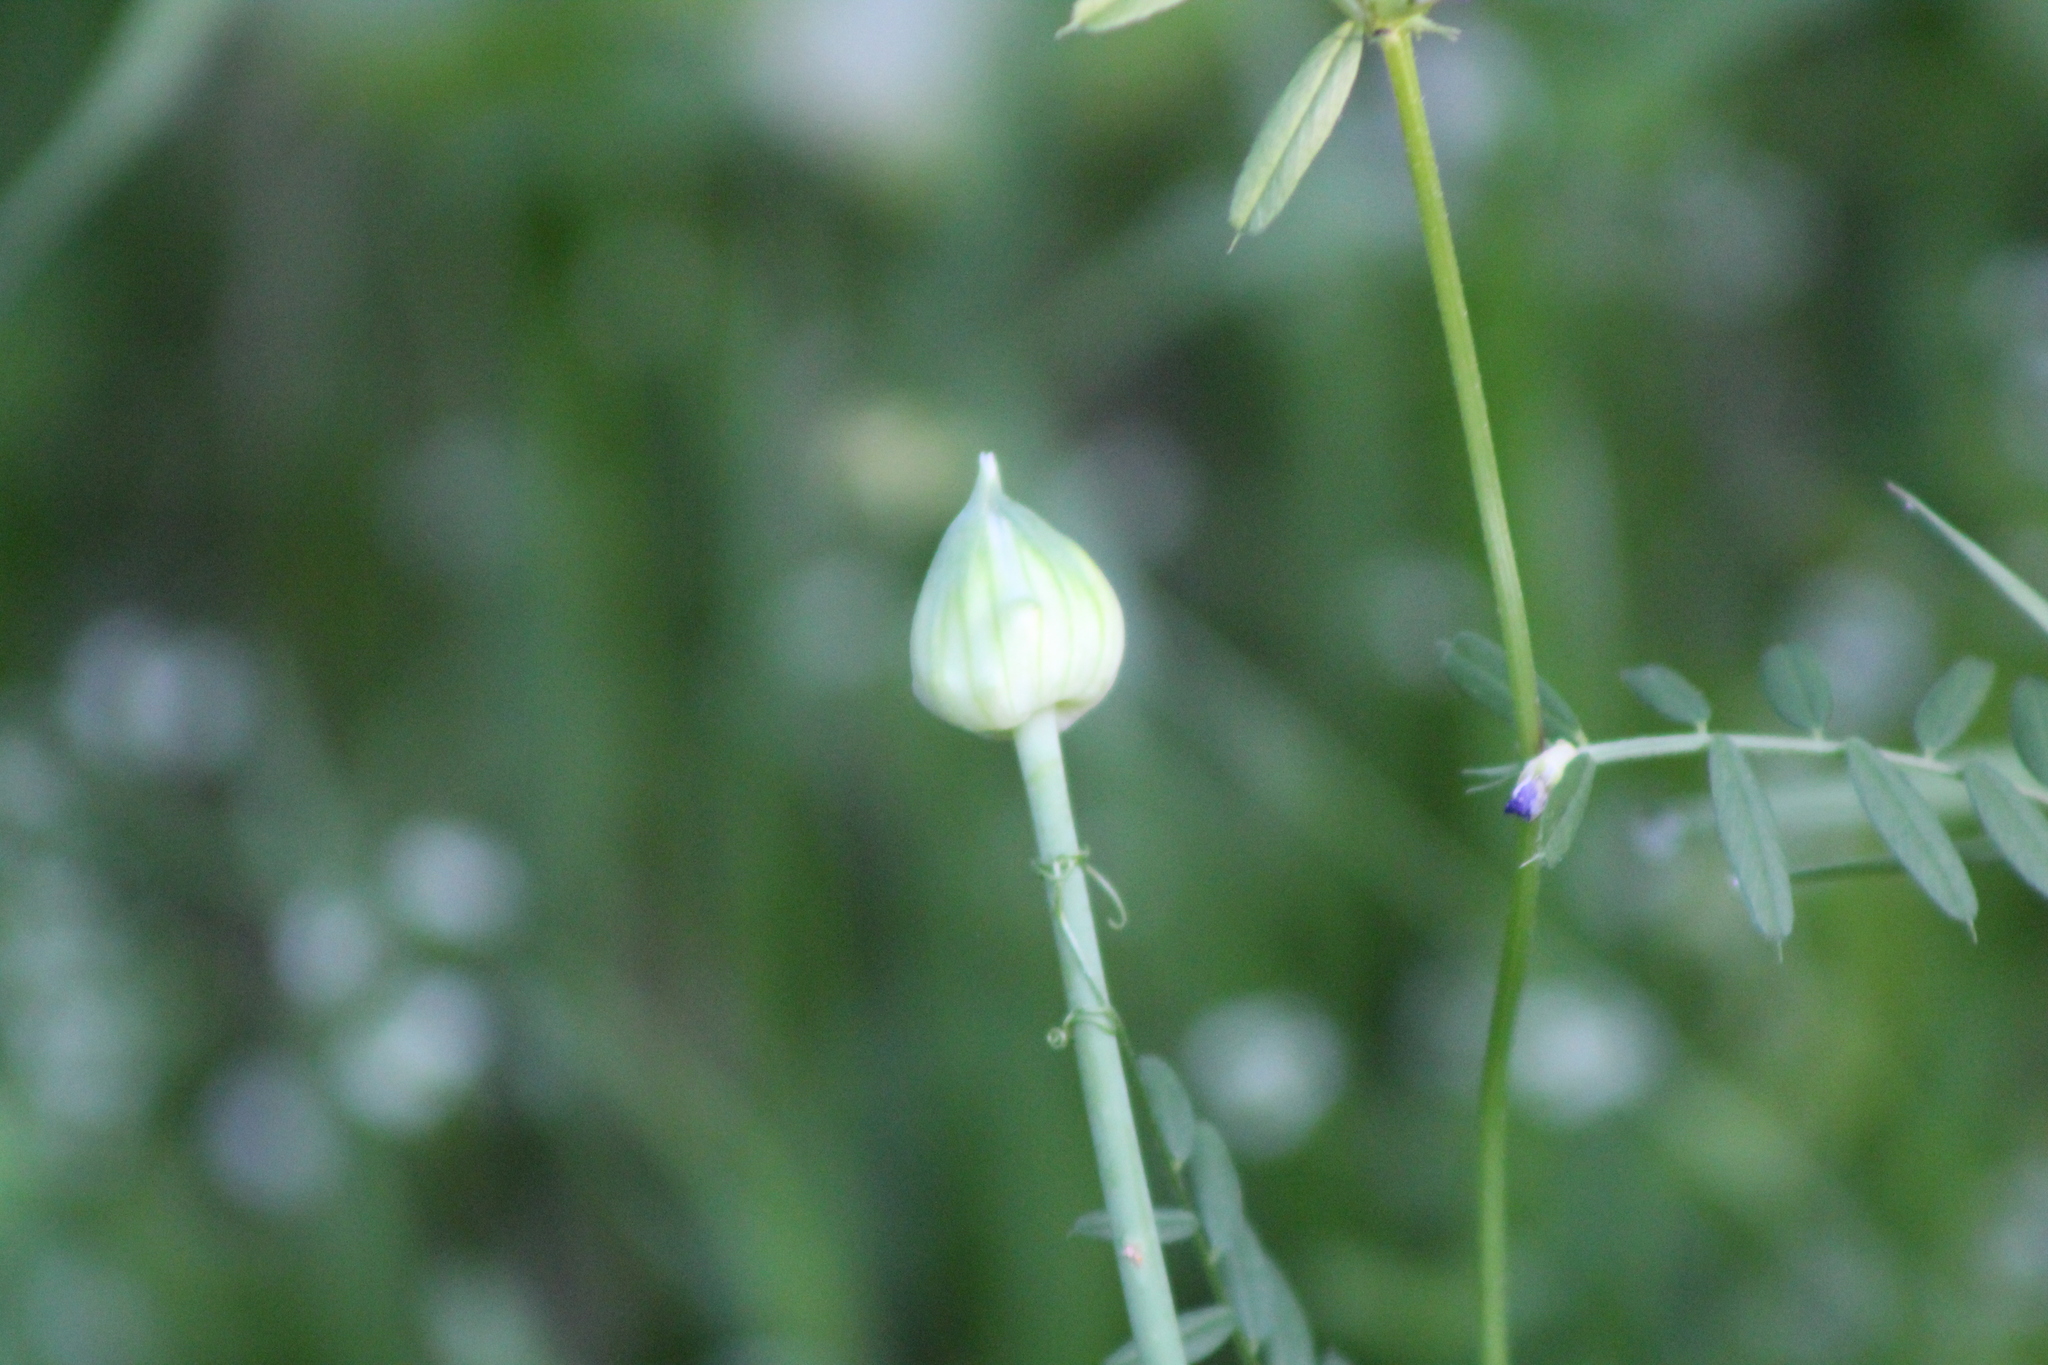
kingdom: Plantae
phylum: Tracheophyta
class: Liliopsida
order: Asparagales
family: Amaryllidaceae
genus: Allium
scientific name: Allium canadense
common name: Meadow garlic
